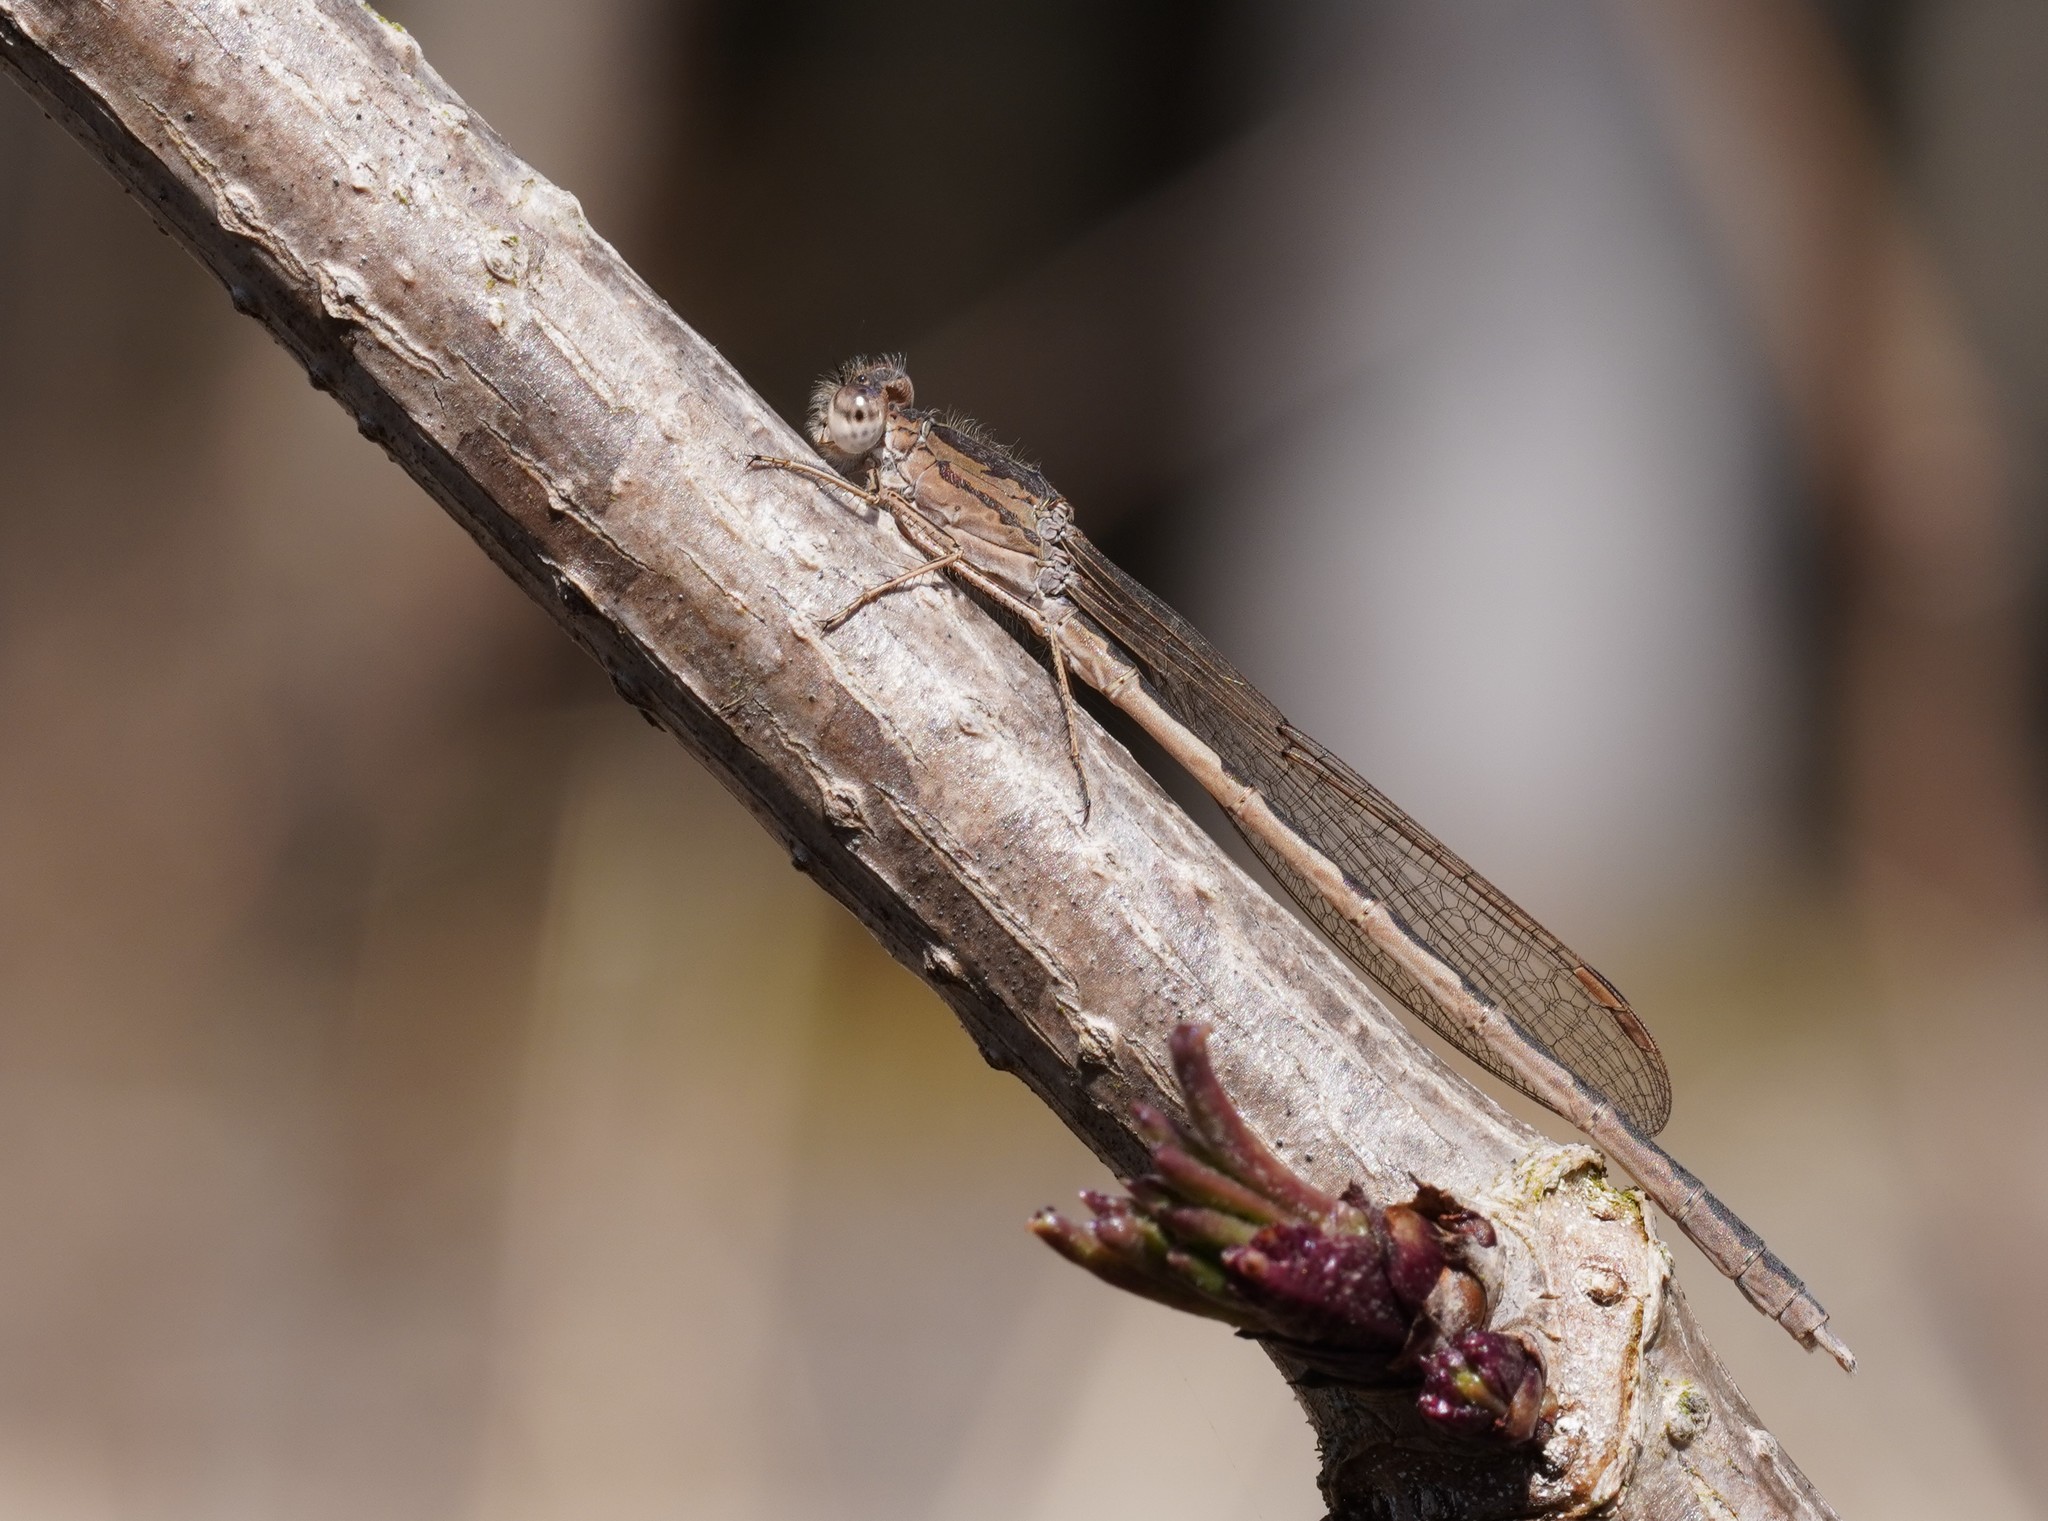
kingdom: Animalia
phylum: Arthropoda
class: Insecta
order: Odonata
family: Lestidae
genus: Sympecma
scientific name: Sympecma paedisca
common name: Siberian winter damsel
